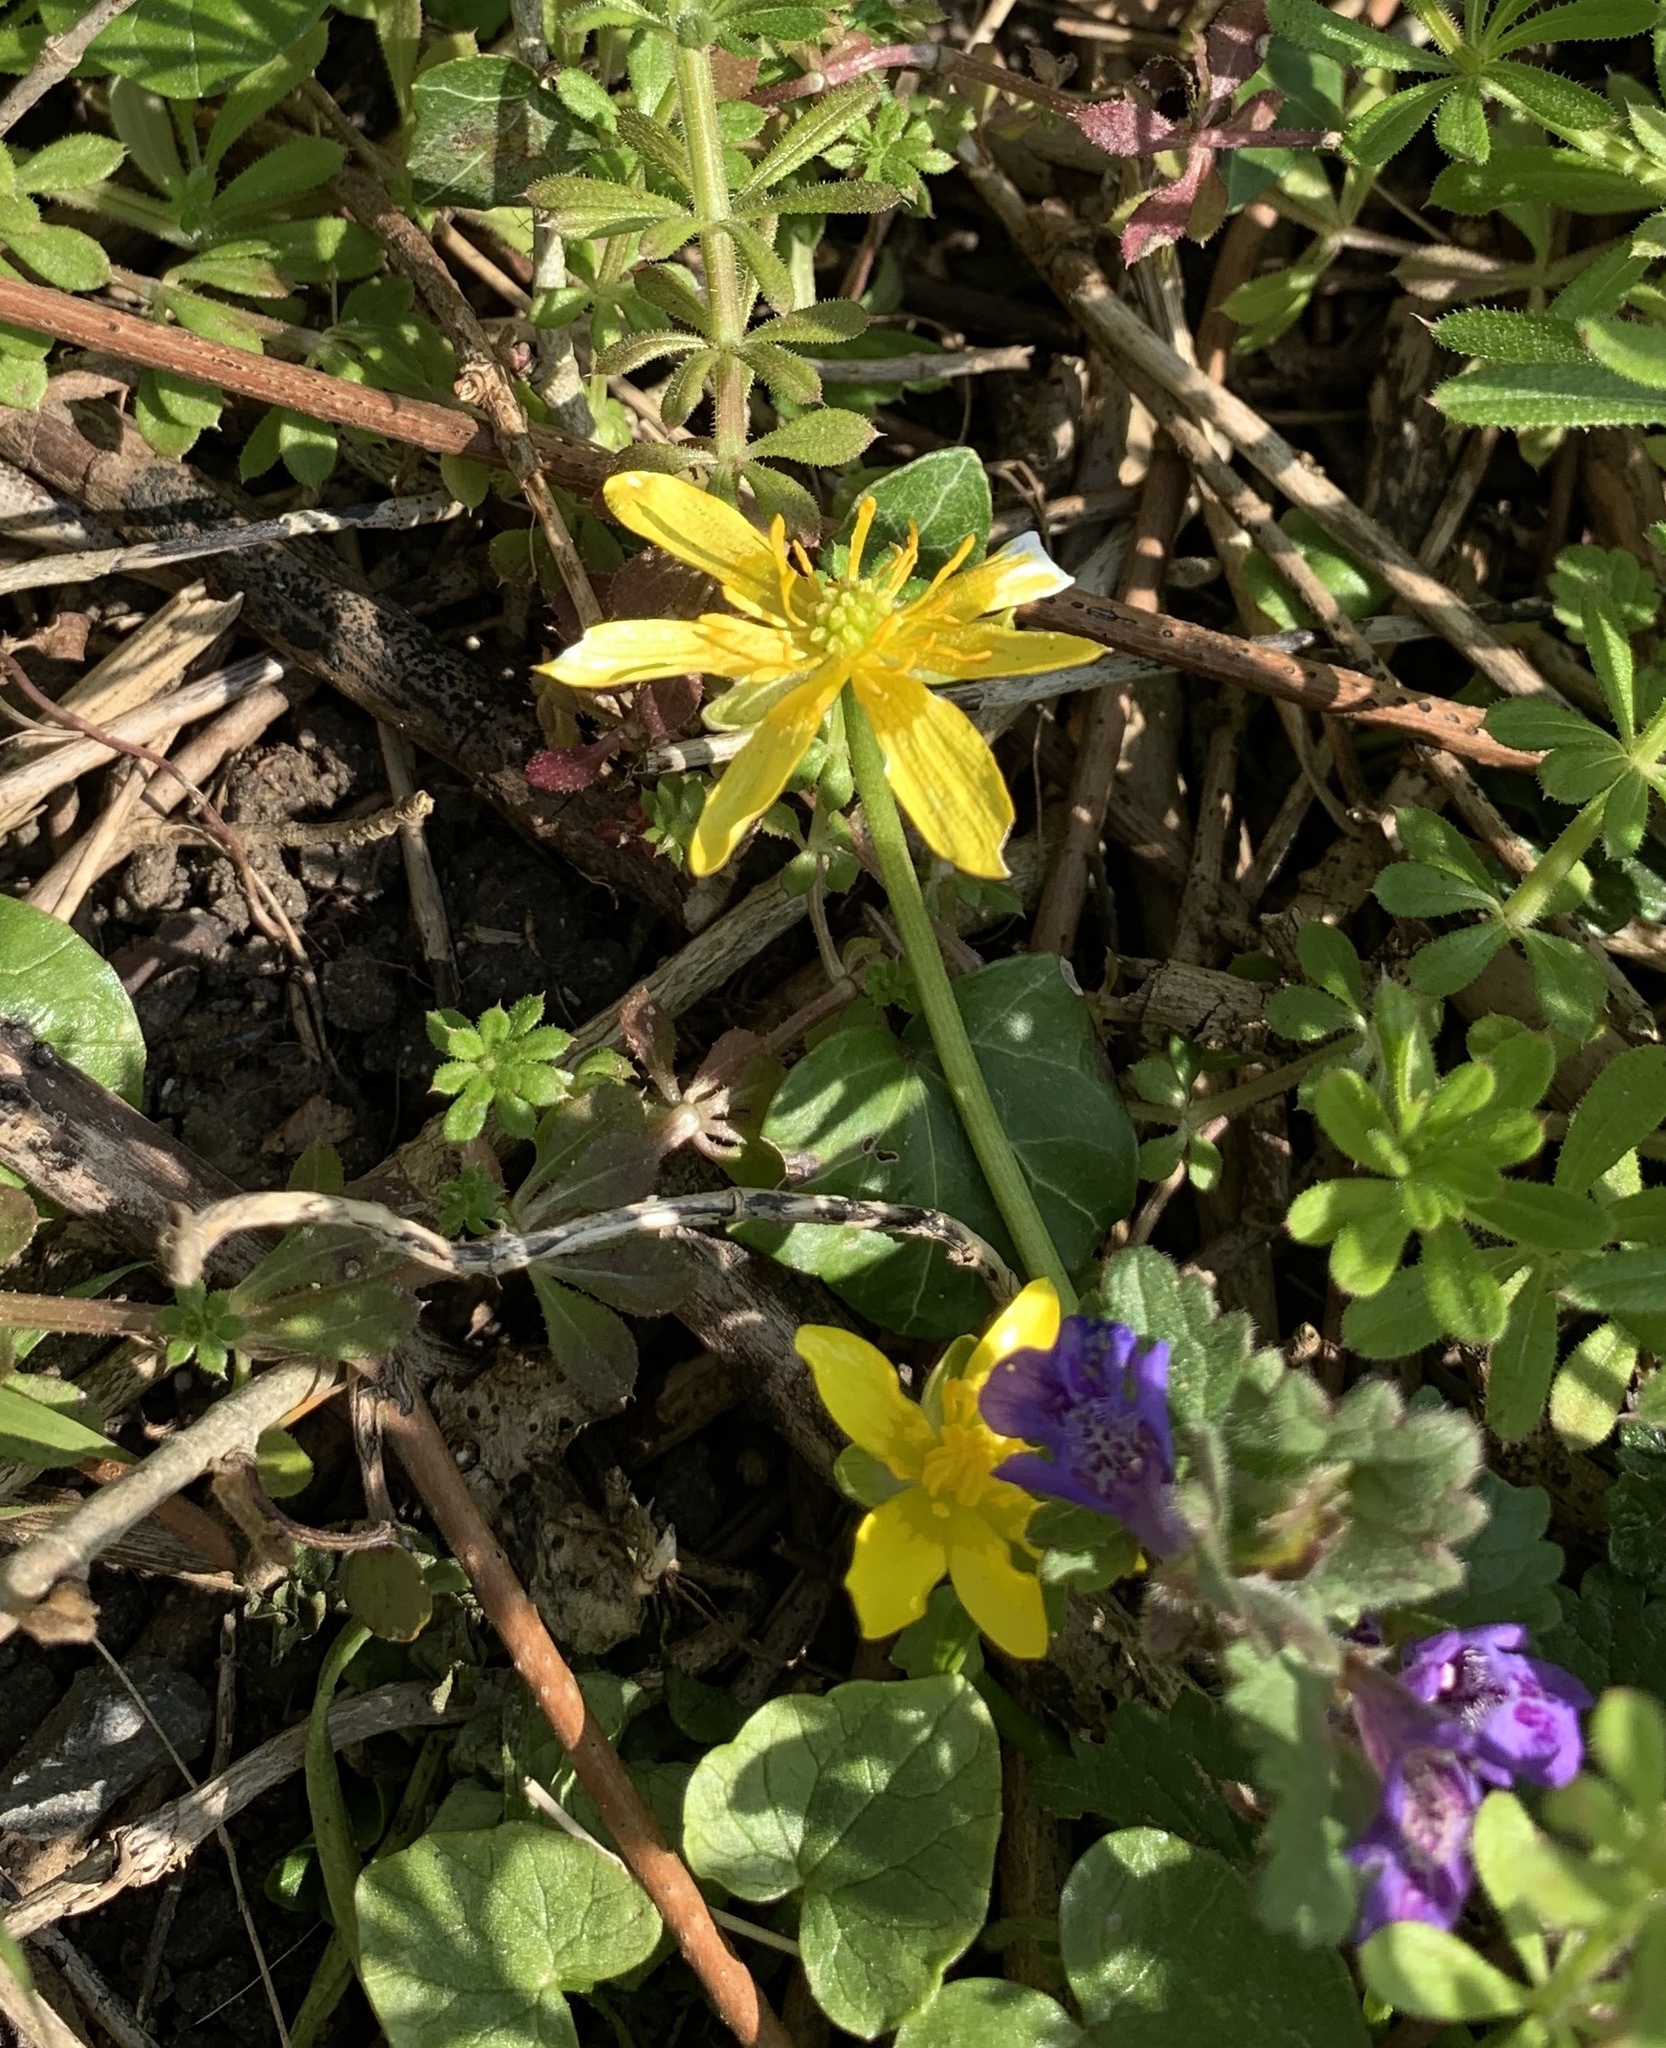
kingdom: Plantae
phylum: Tracheophyta
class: Magnoliopsida
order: Ranunculales
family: Ranunculaceae
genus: Ficaria
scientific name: Ficaria verna
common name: Lesser celandine
